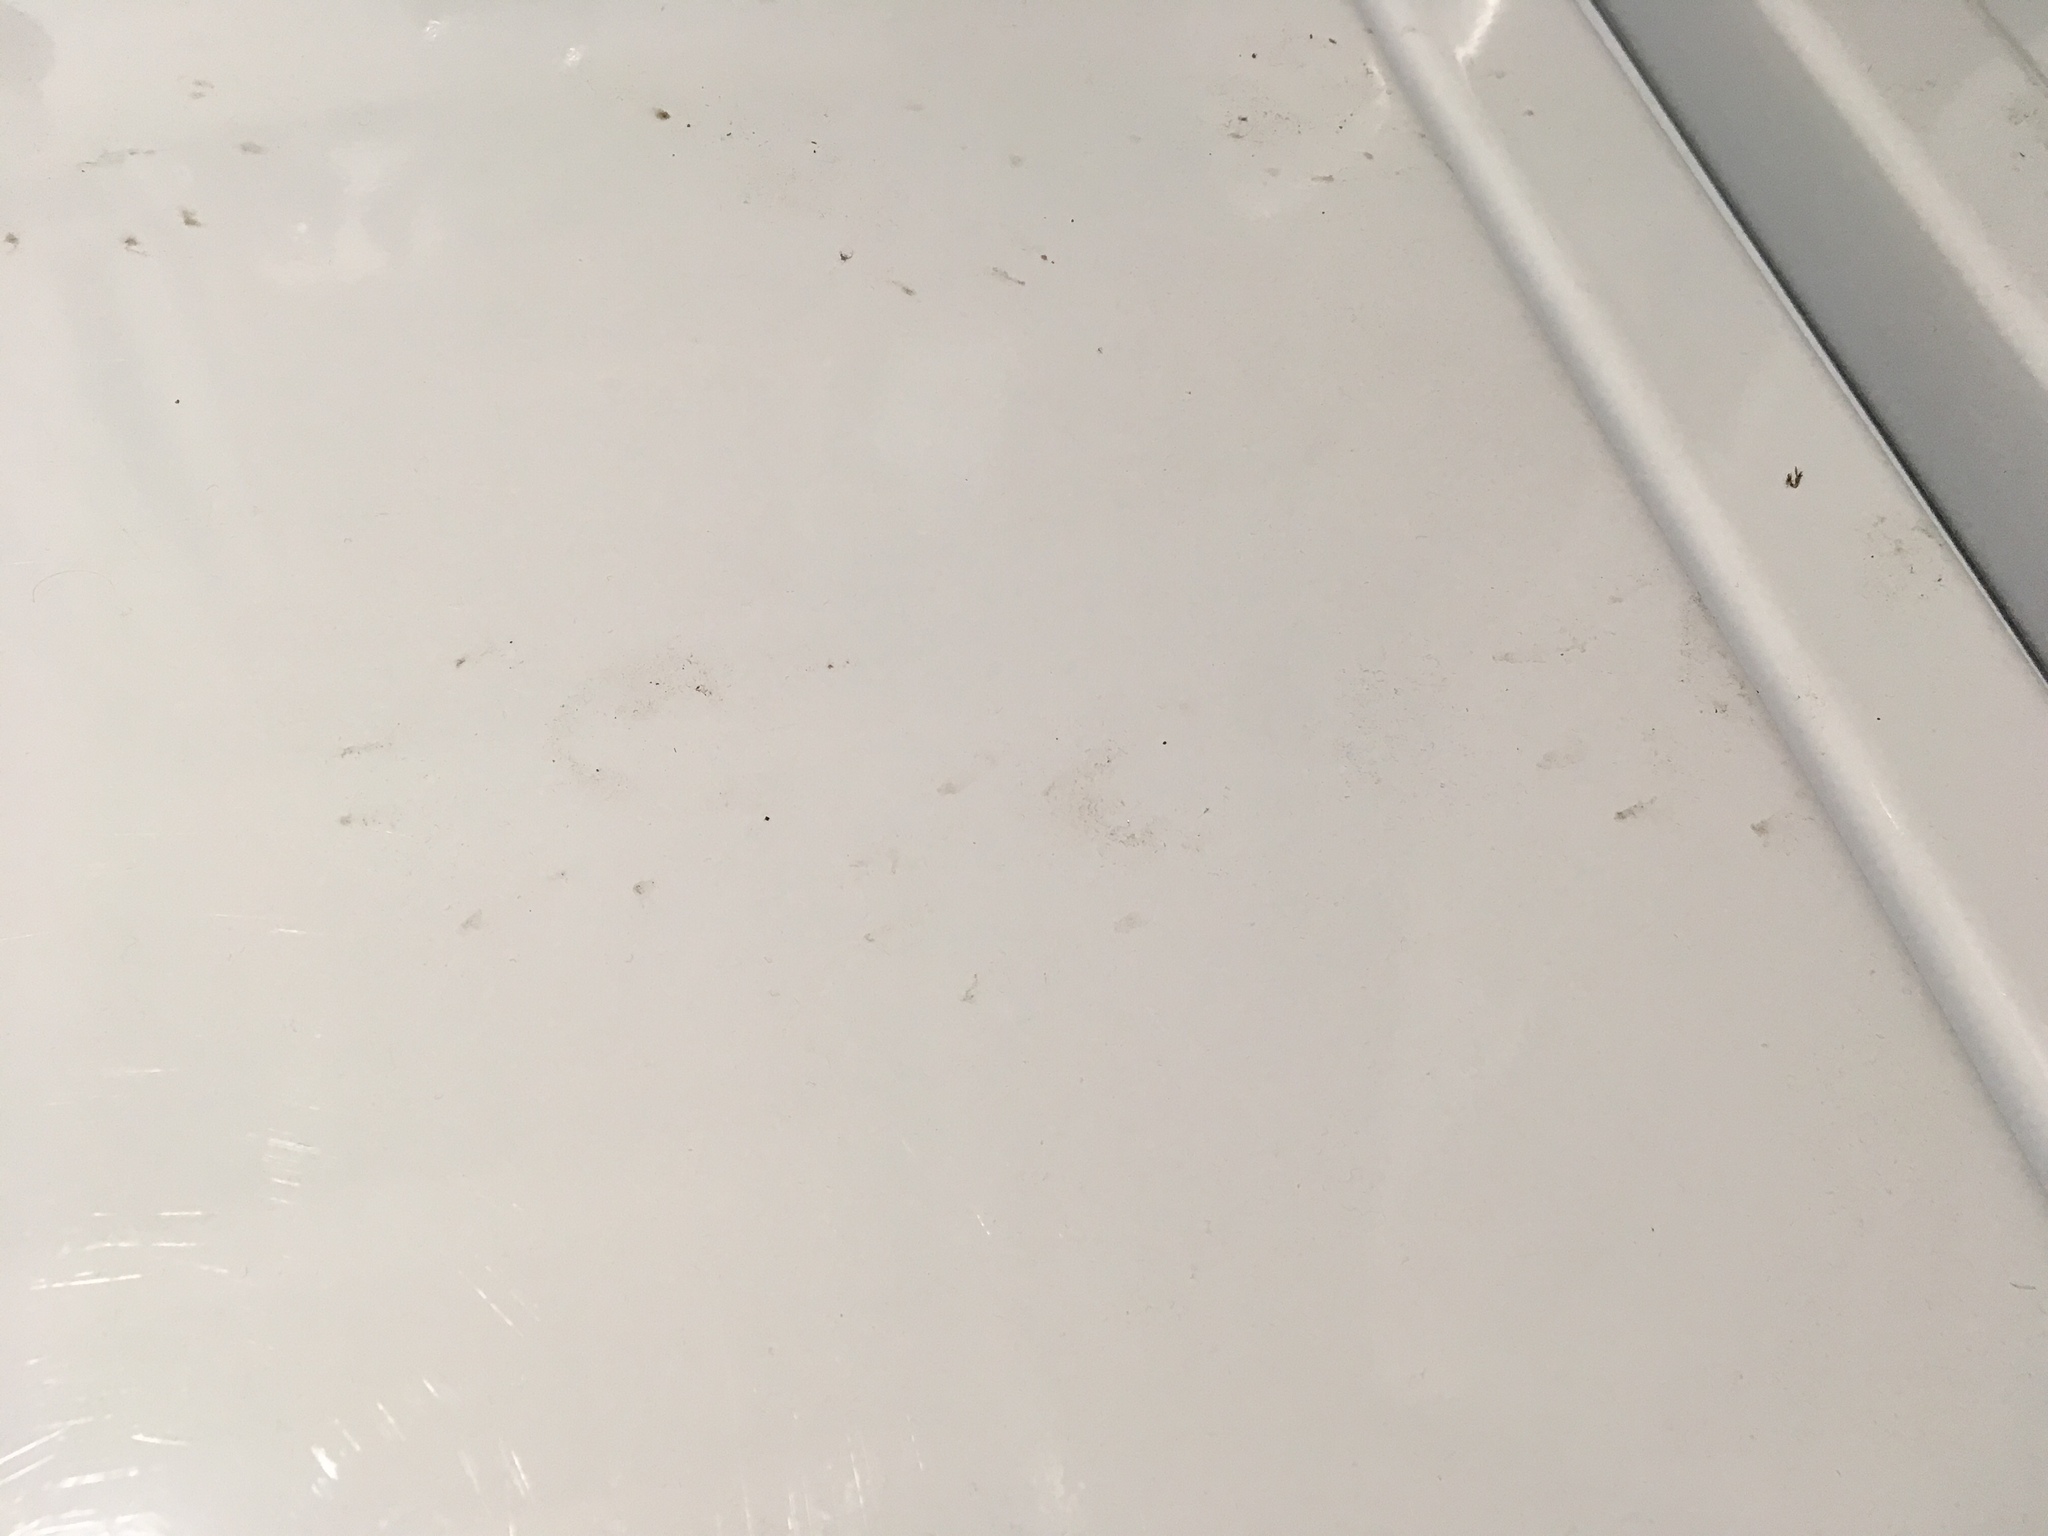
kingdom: Animalia
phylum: Chordata
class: Mammalia
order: Carnivora
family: Procyonidae
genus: Procyon
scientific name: Procyon lotor
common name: Raccoon
